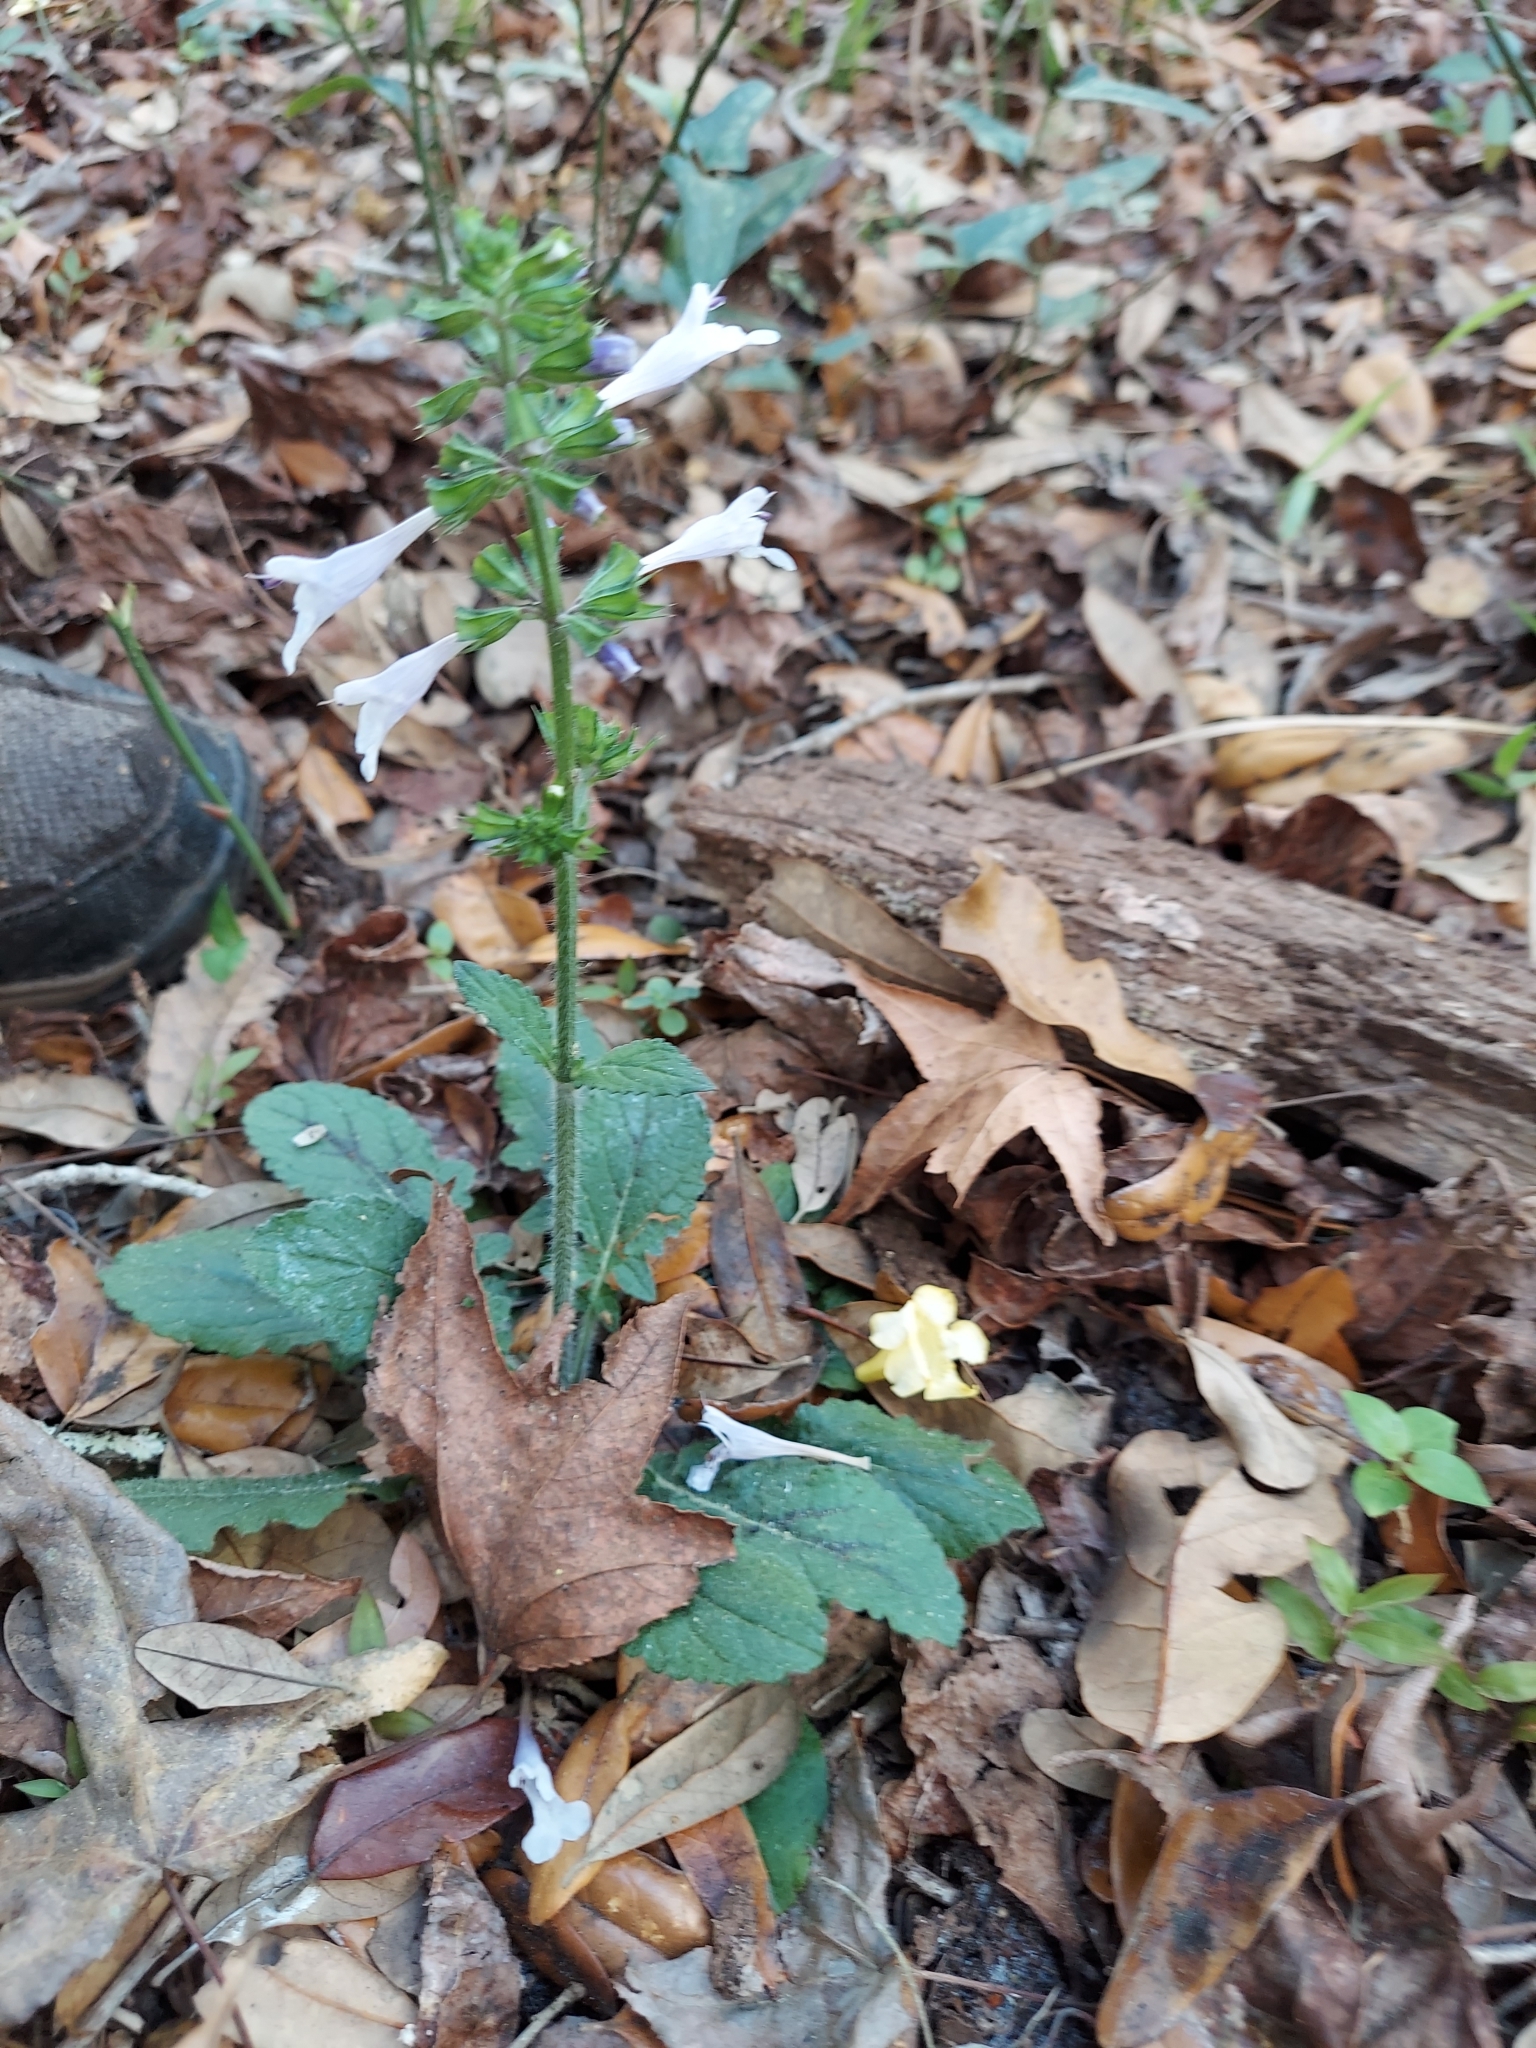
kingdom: Plantae
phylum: Tracheophyta
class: Magnoliopsida
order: Lamiales
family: Lamiaceae
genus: Salvia
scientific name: Salvia lyrata
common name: Cancerweed
